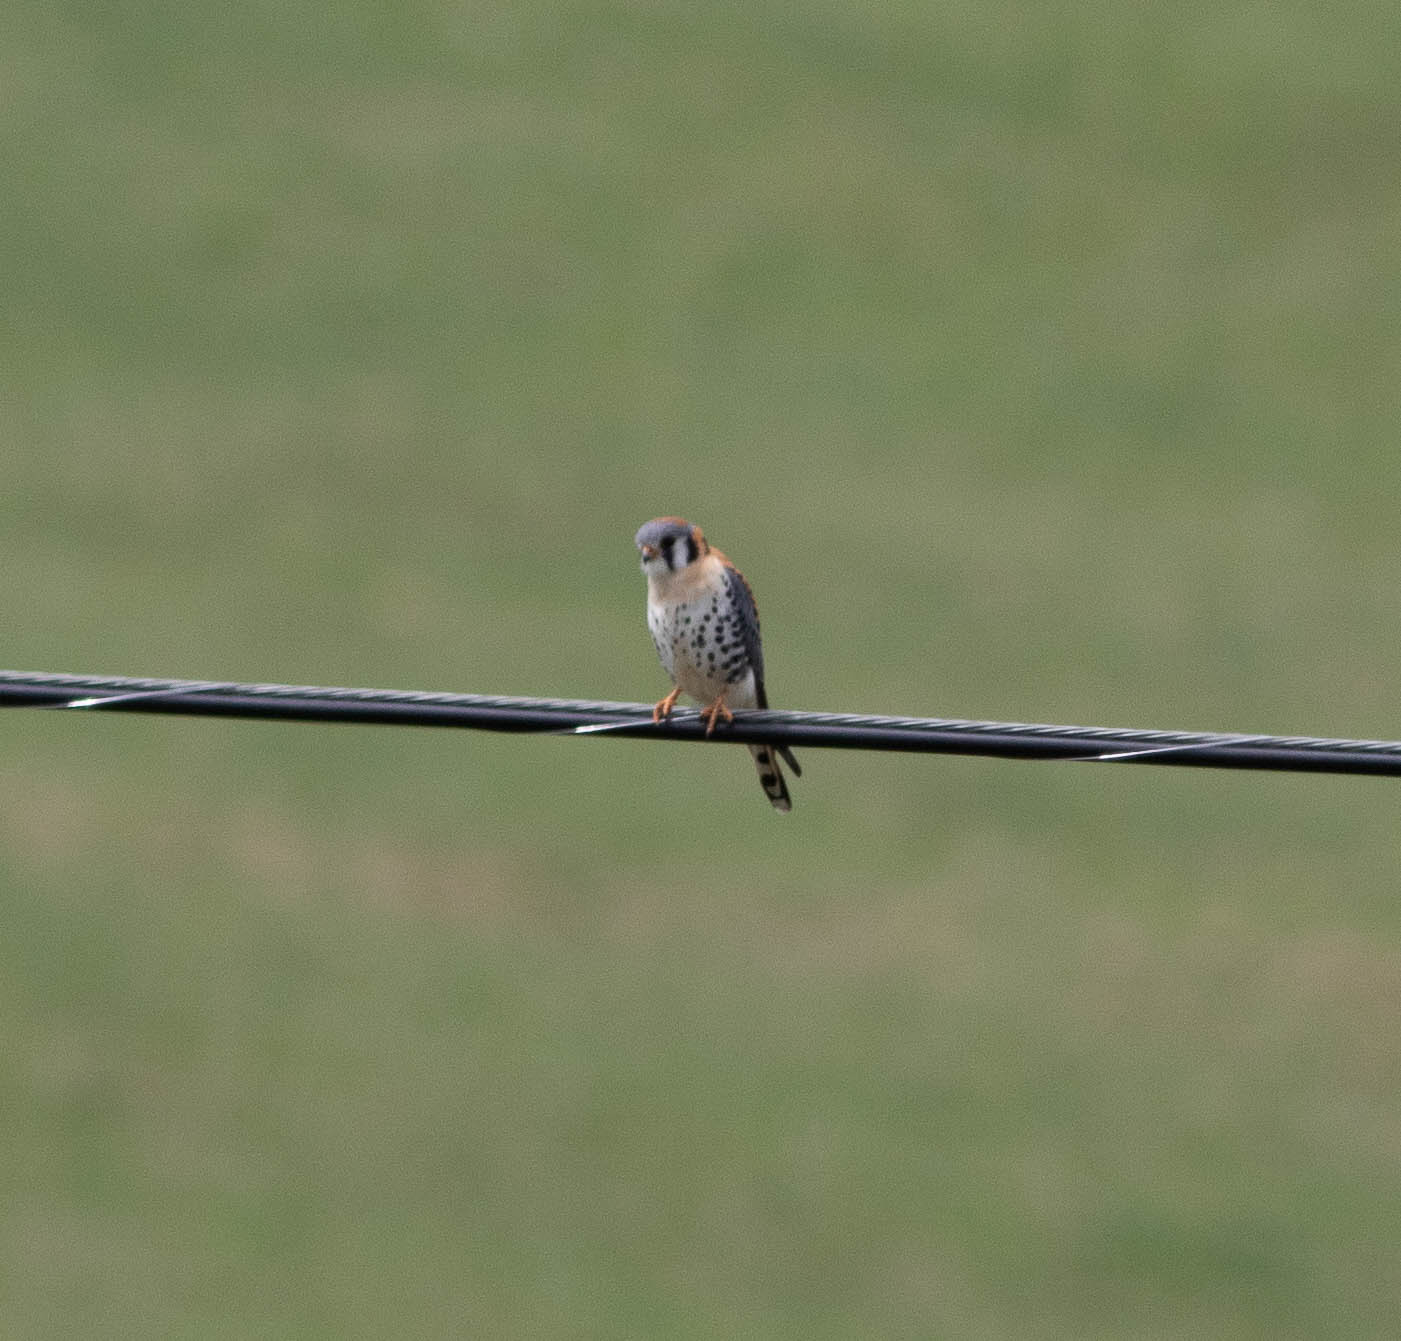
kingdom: Animalia
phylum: Chordata
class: Aves
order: Falconiformes
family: Falconidae
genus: Falco
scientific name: Falco sparverius
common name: American kestrel
